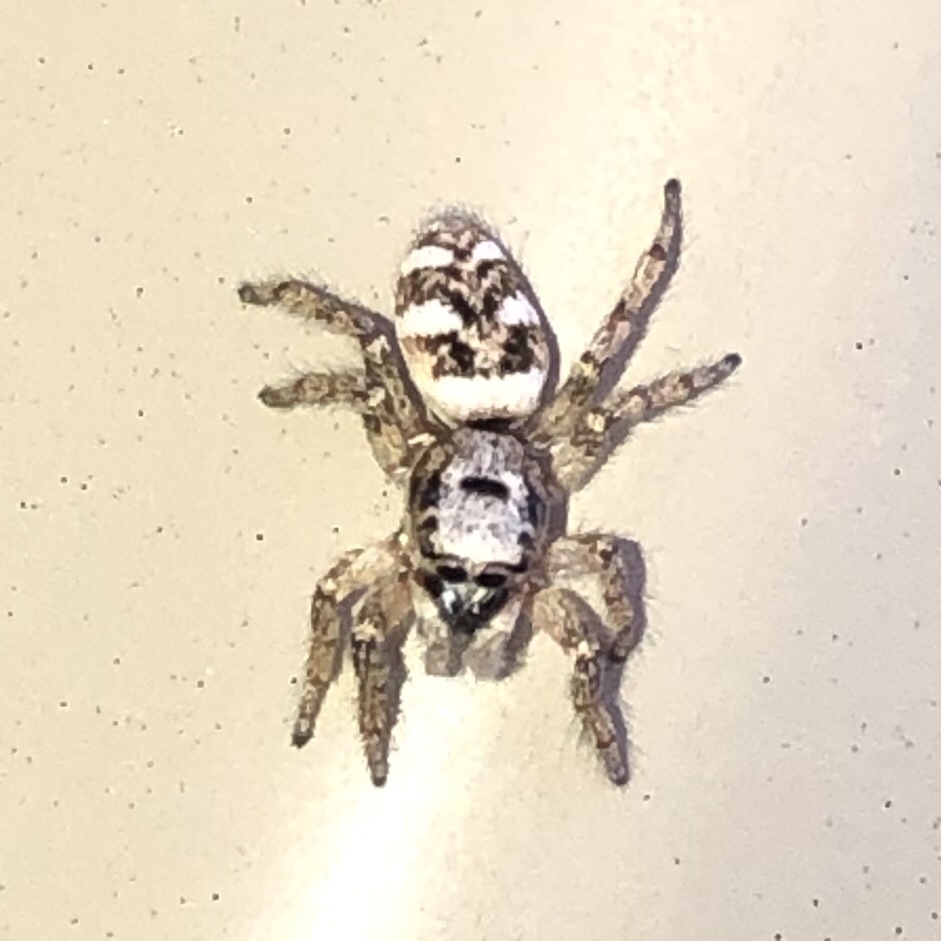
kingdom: Animalia
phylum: Arthropoda
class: Arachnida
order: Araneae
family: Salticidae
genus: Salticus
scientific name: Salticus scenicus
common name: Zebra jumper
